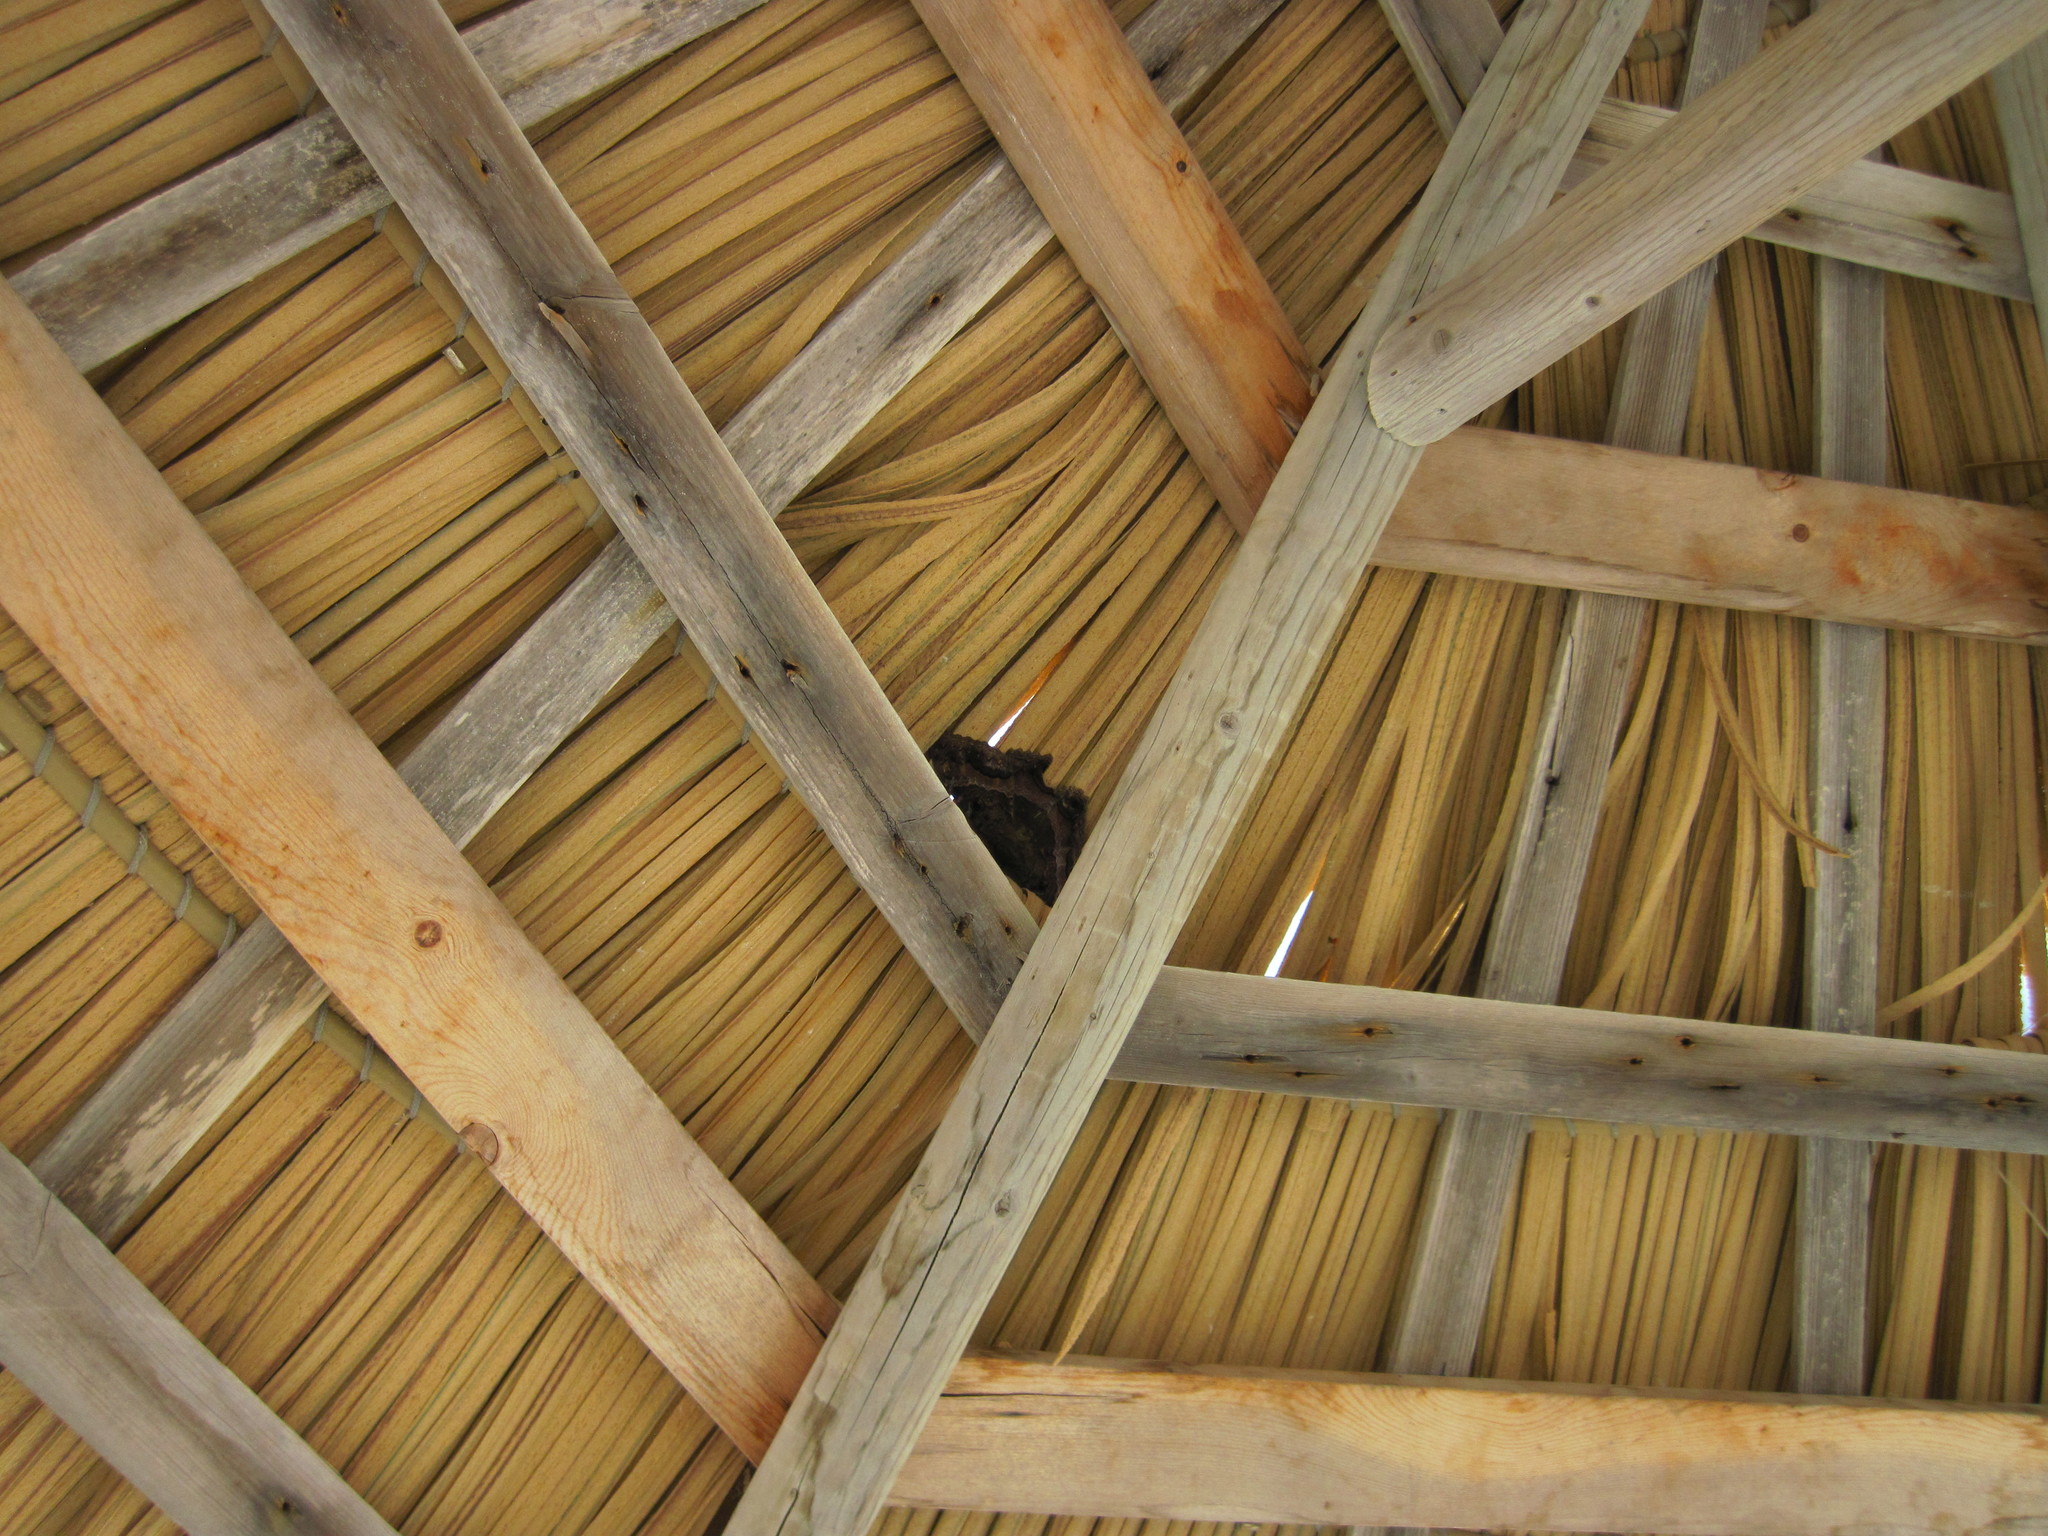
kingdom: Animalia
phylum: Arthropoda
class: Insecta
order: Lepidoptera
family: Erebidae
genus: Ascalapha
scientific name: Ascalapha odorata
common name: Black witch
